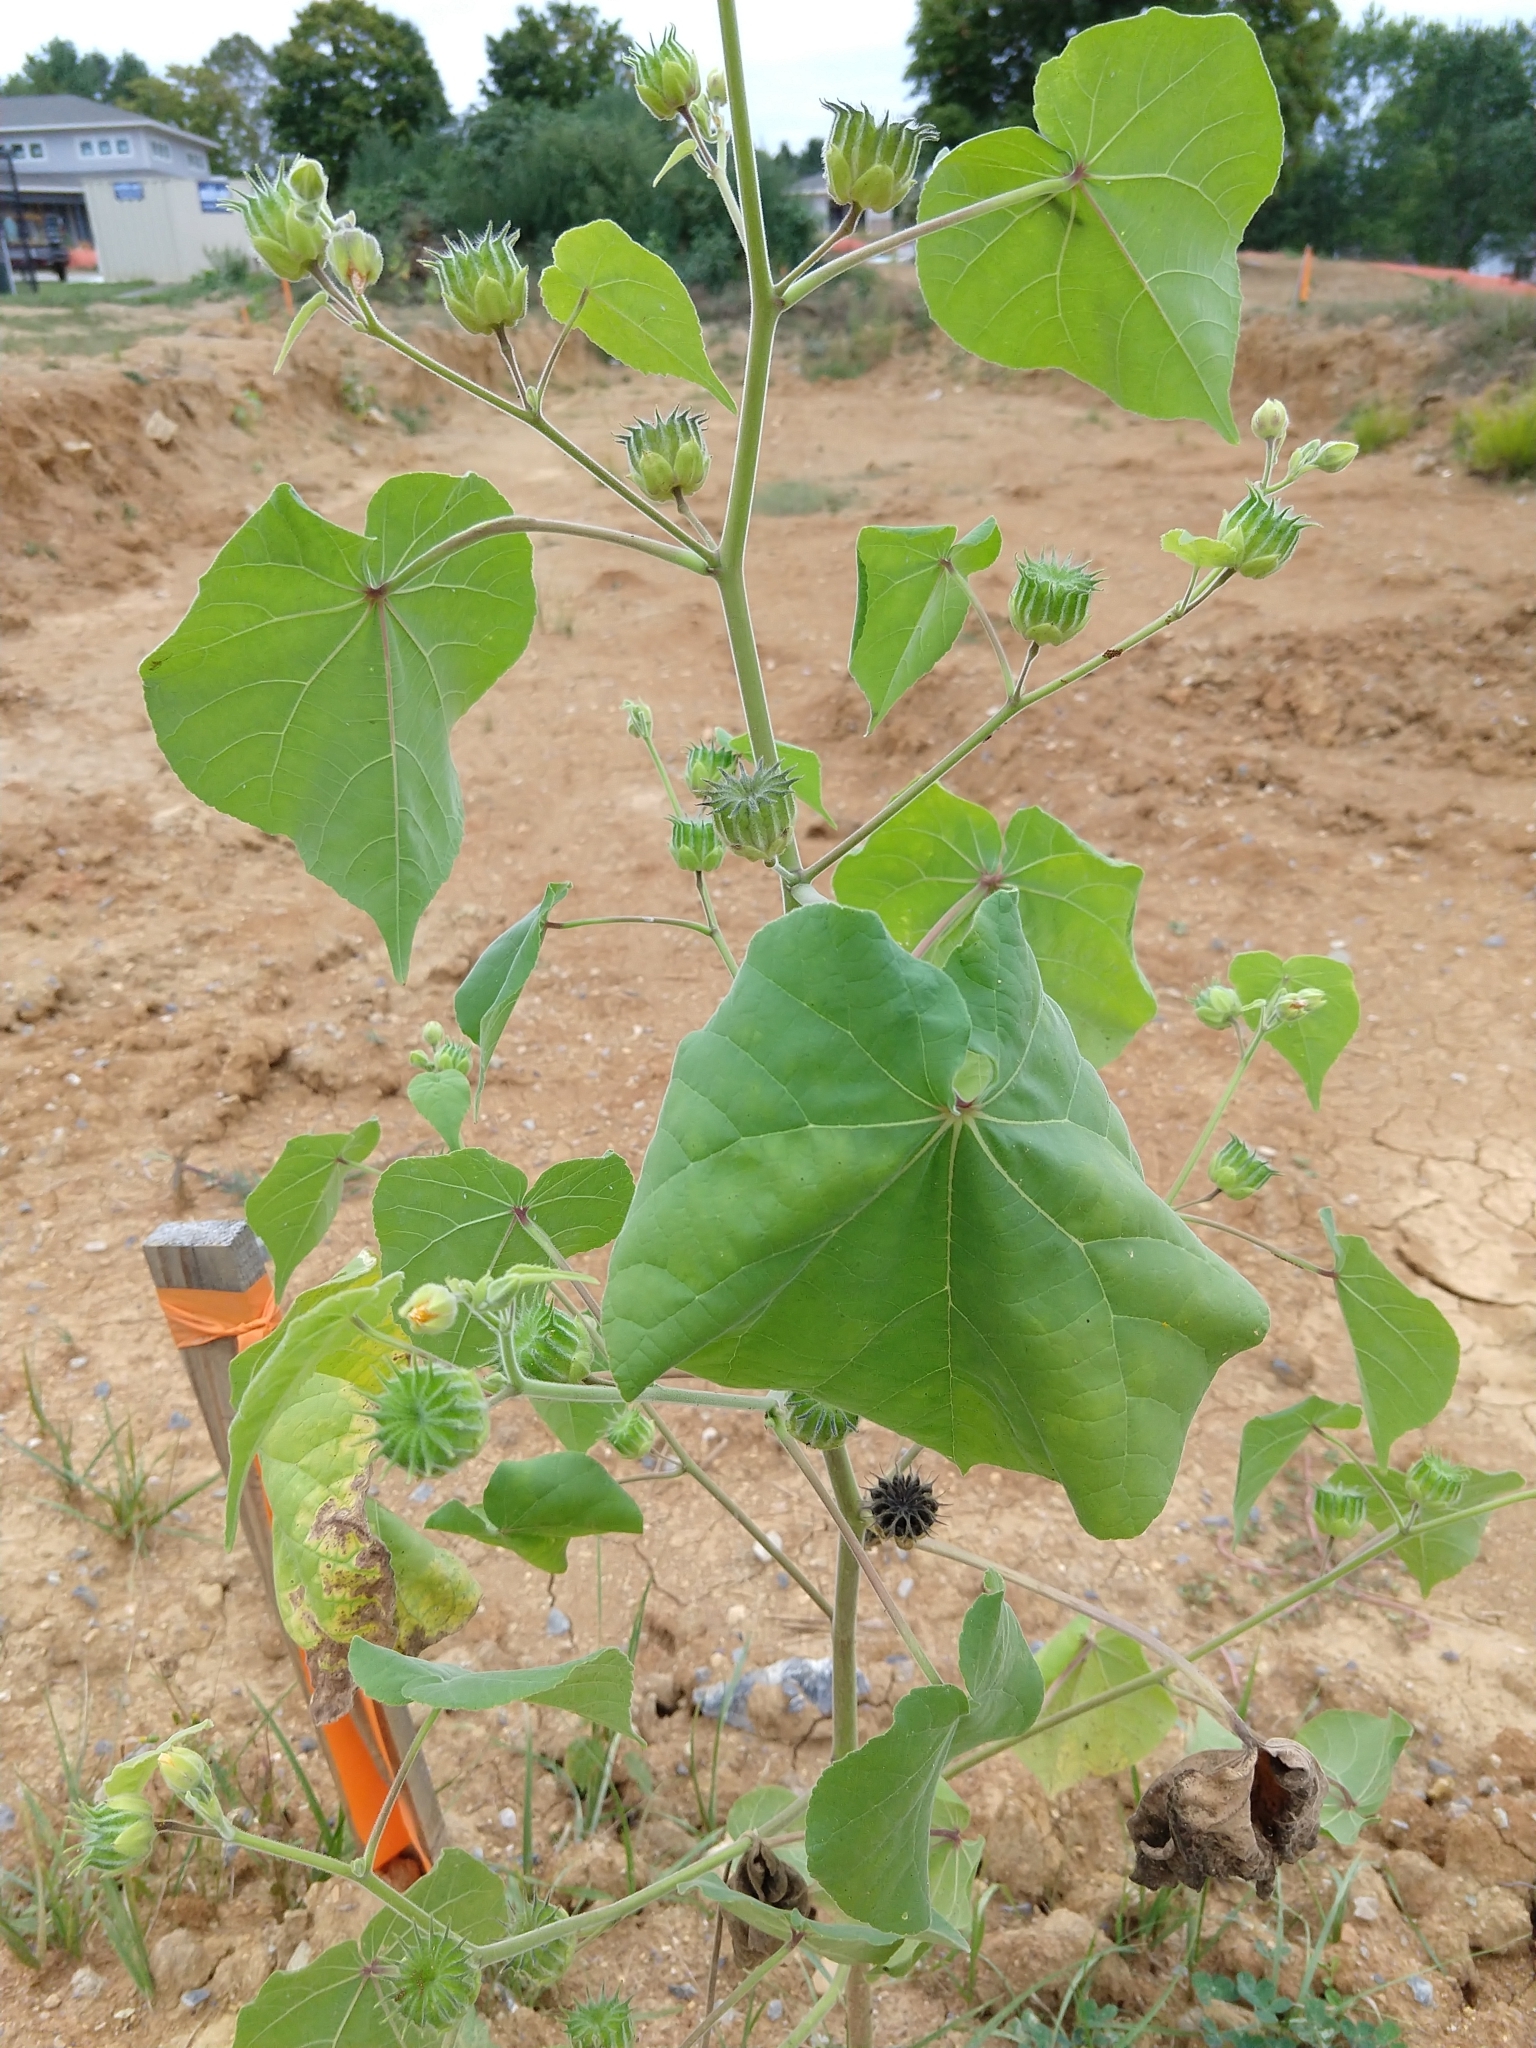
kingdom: Plantae
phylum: Tracheophyta
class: Magnoliopsida
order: Malvales
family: Malvaceae
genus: Abutilon
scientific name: Abutilon theophrasti
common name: Velvetleaf
